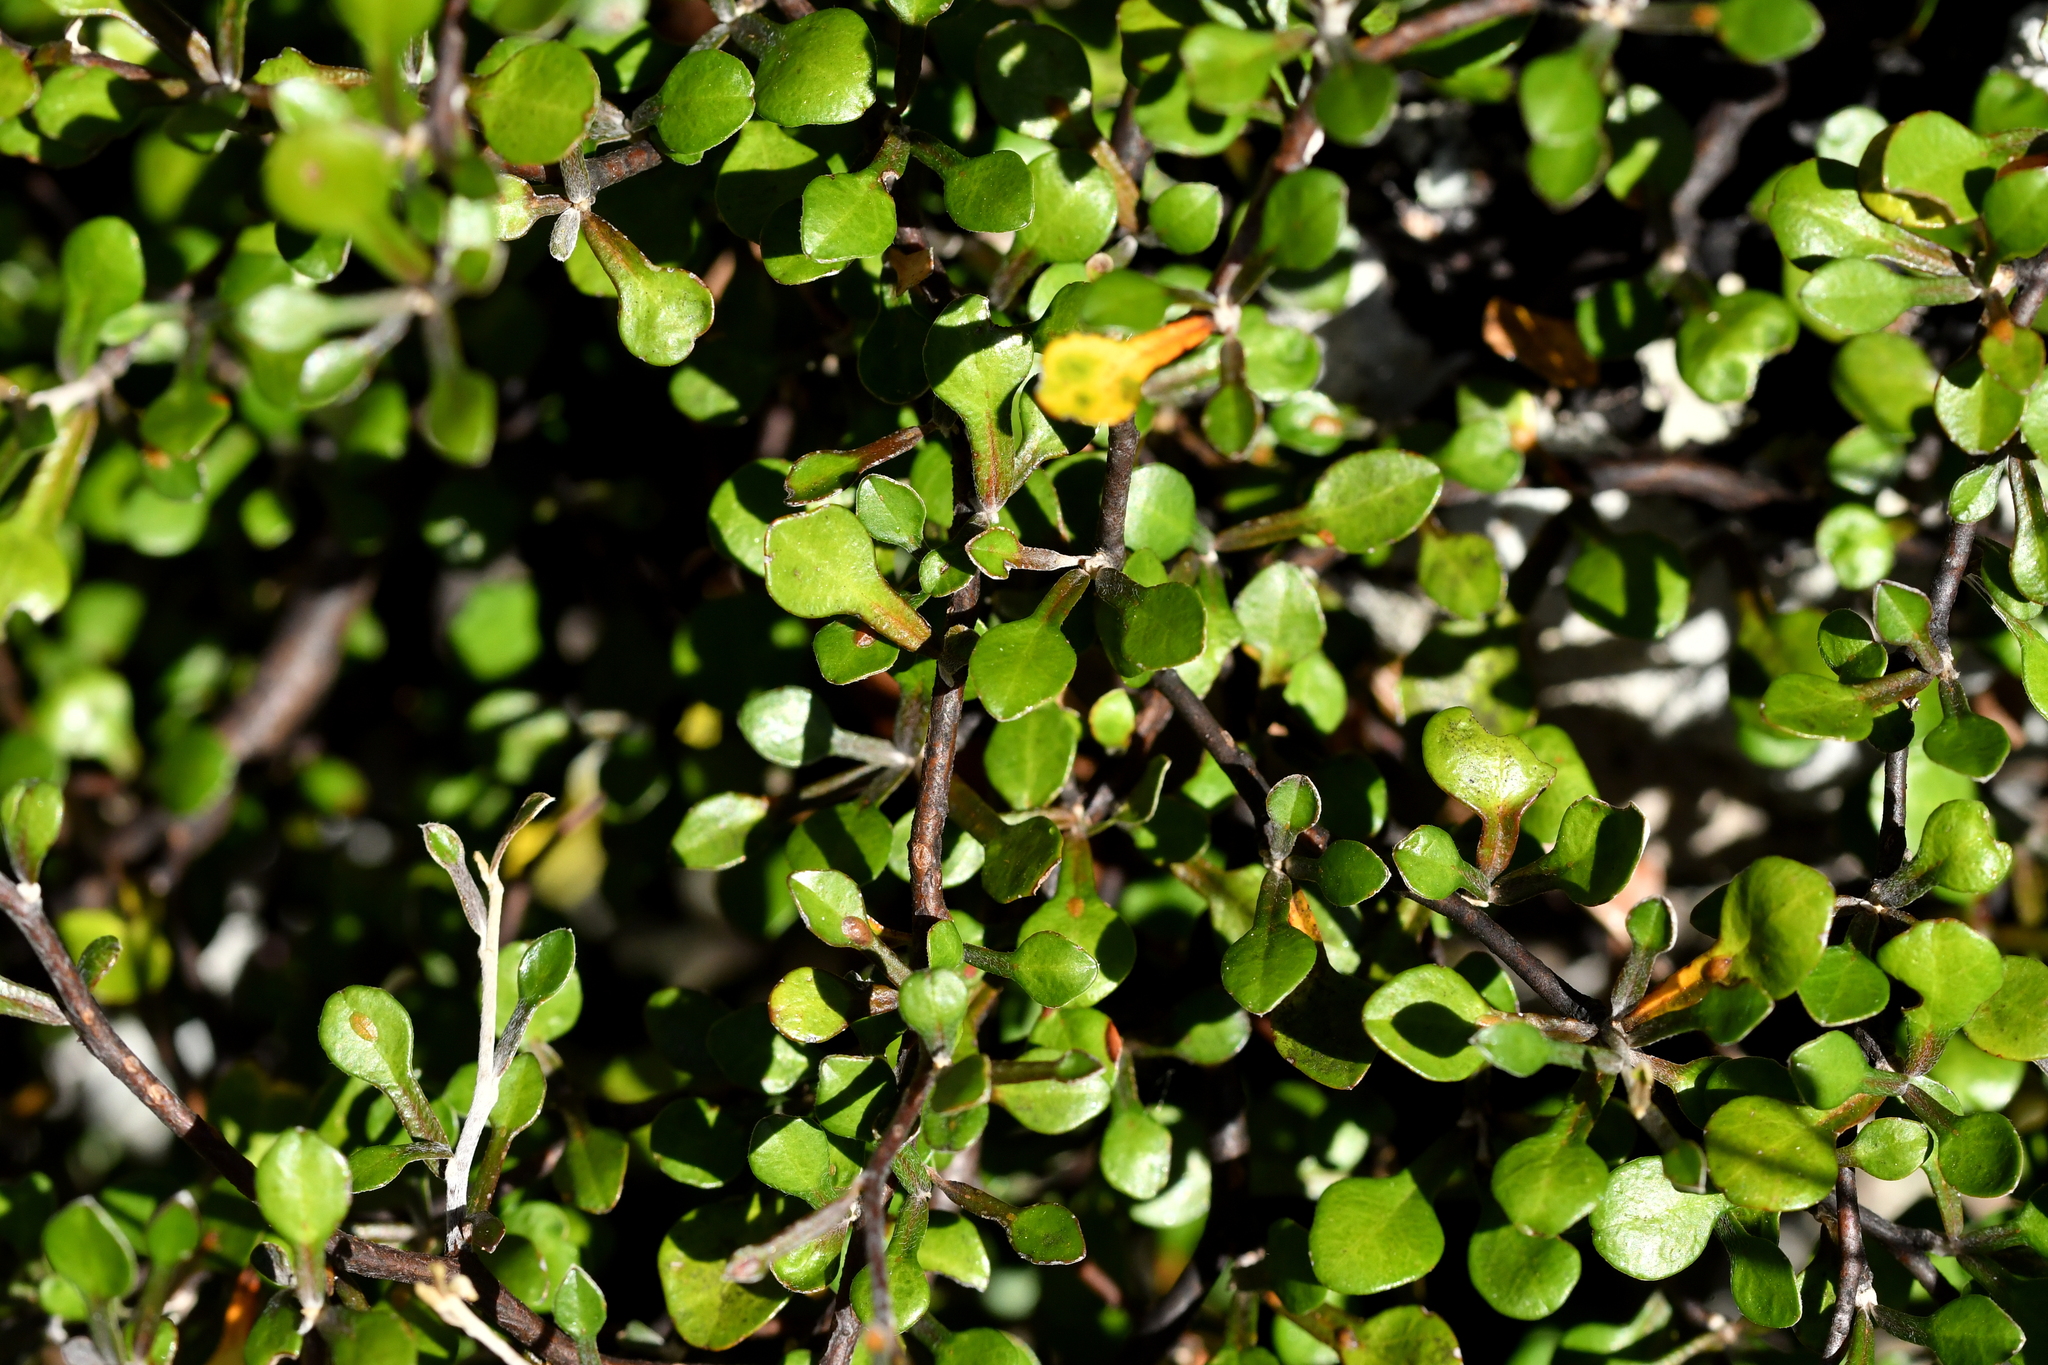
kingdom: Plantae
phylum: Tracheophyta
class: Magnoliopsida
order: Asterales
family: Argophyllaceae
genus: Corokia
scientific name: Corokia cotoneaster
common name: Wire nettingbush
